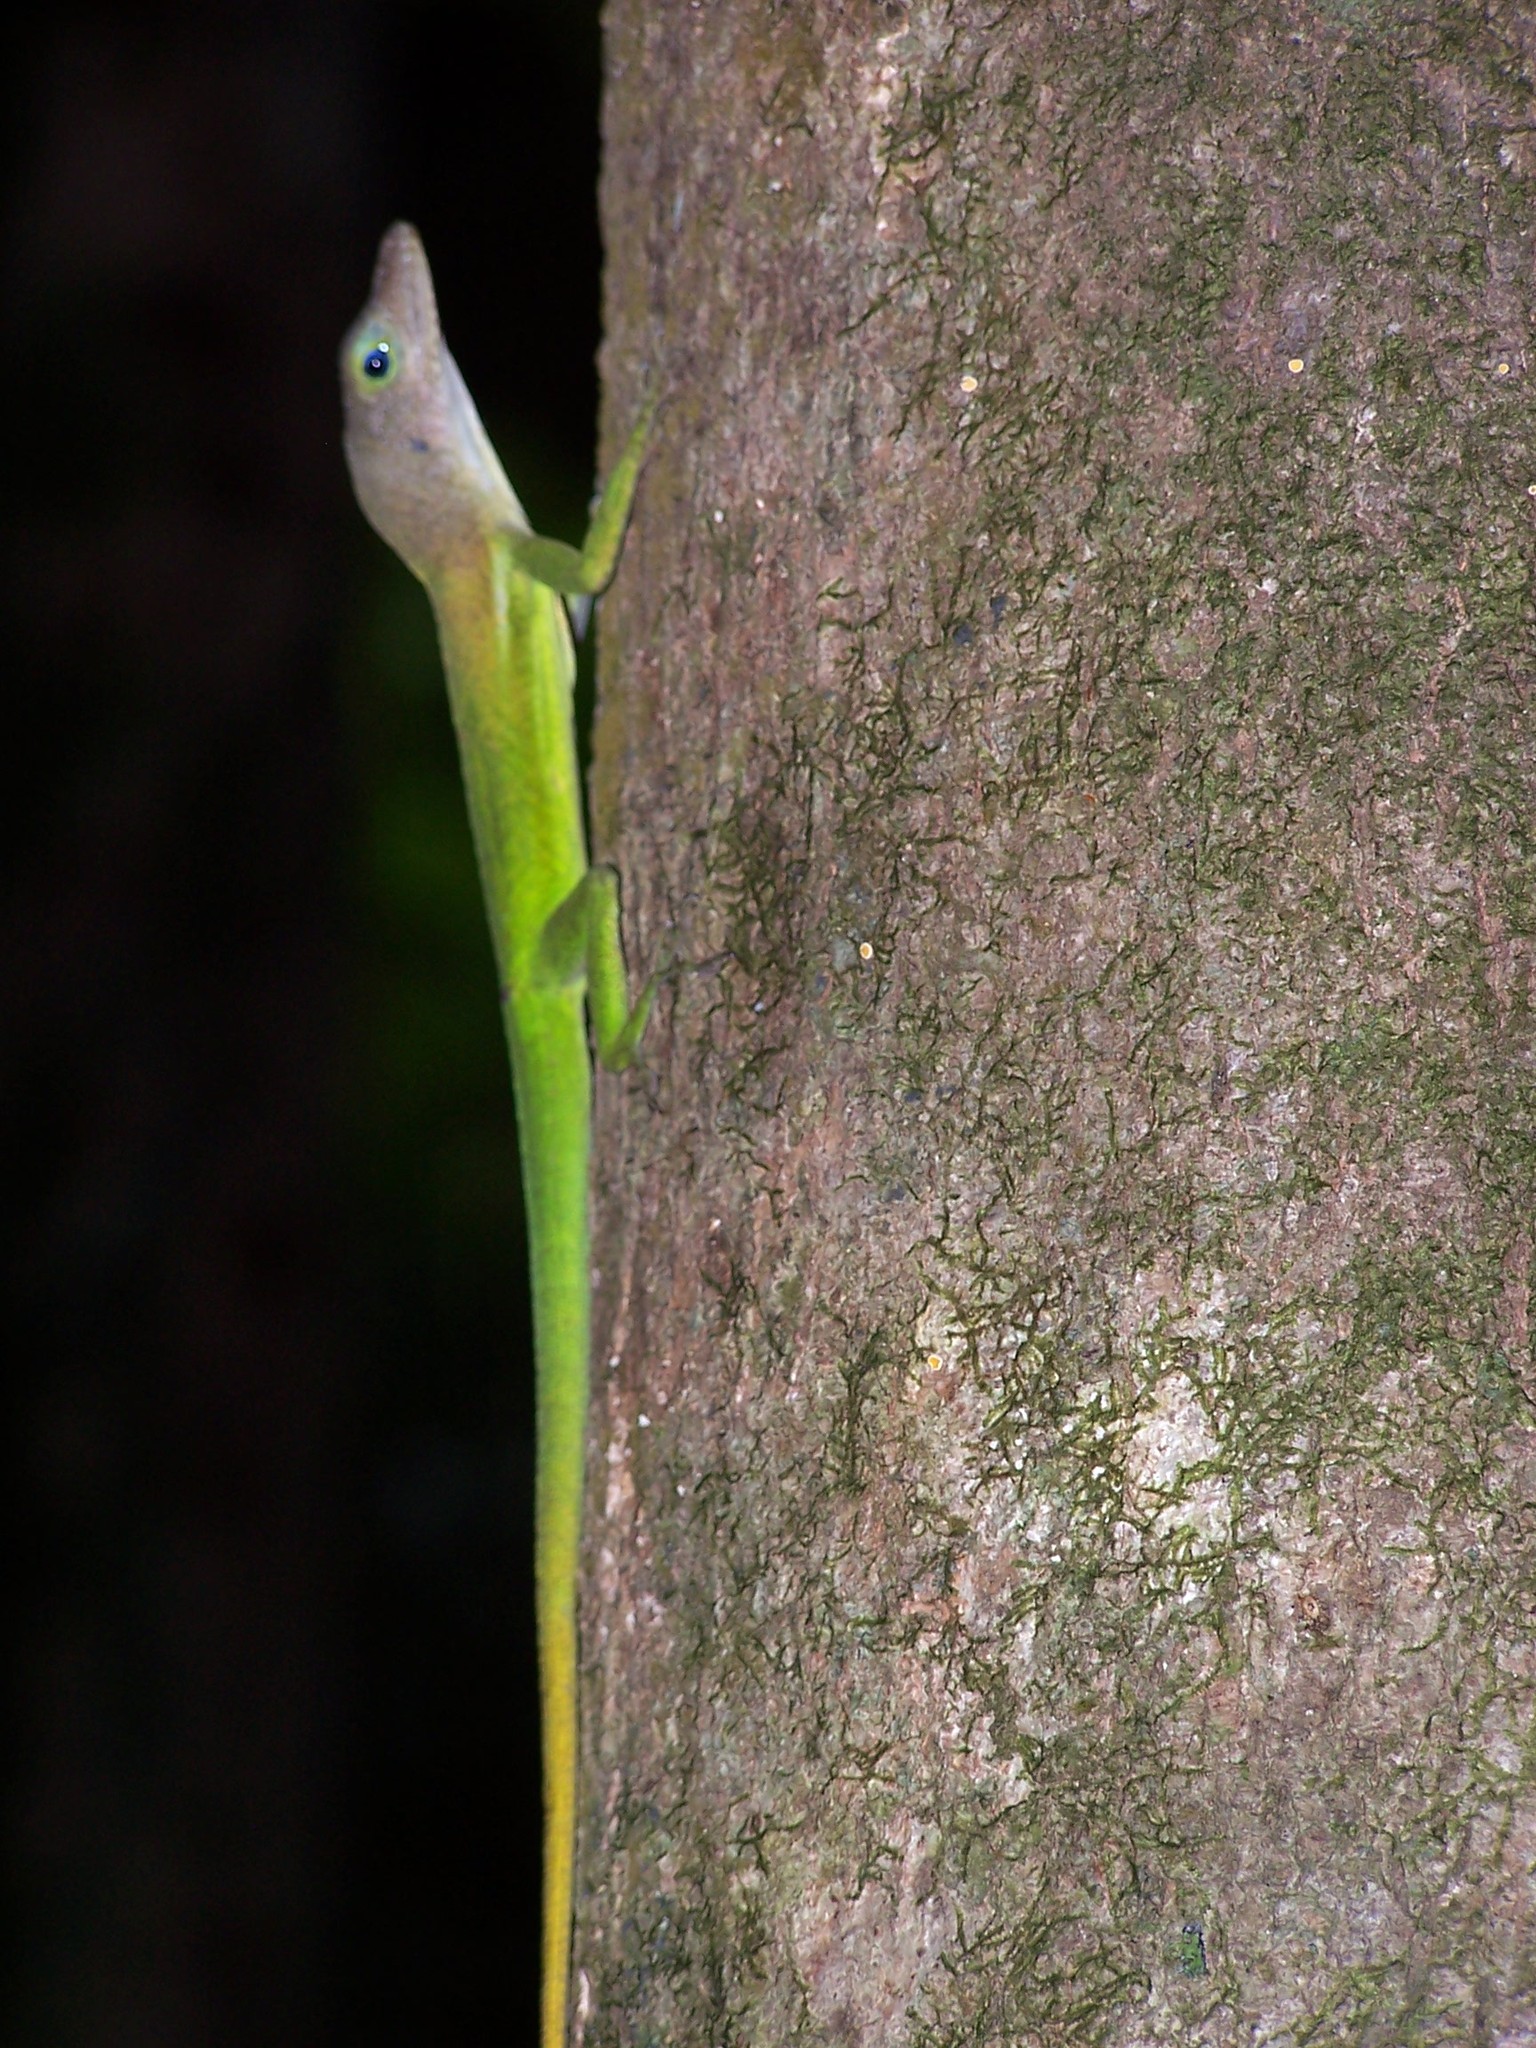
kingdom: Animalia
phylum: Chordata
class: Squamata
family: Dactyloidae
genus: Anolis
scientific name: Anolis luciae
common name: St. lucia anole
